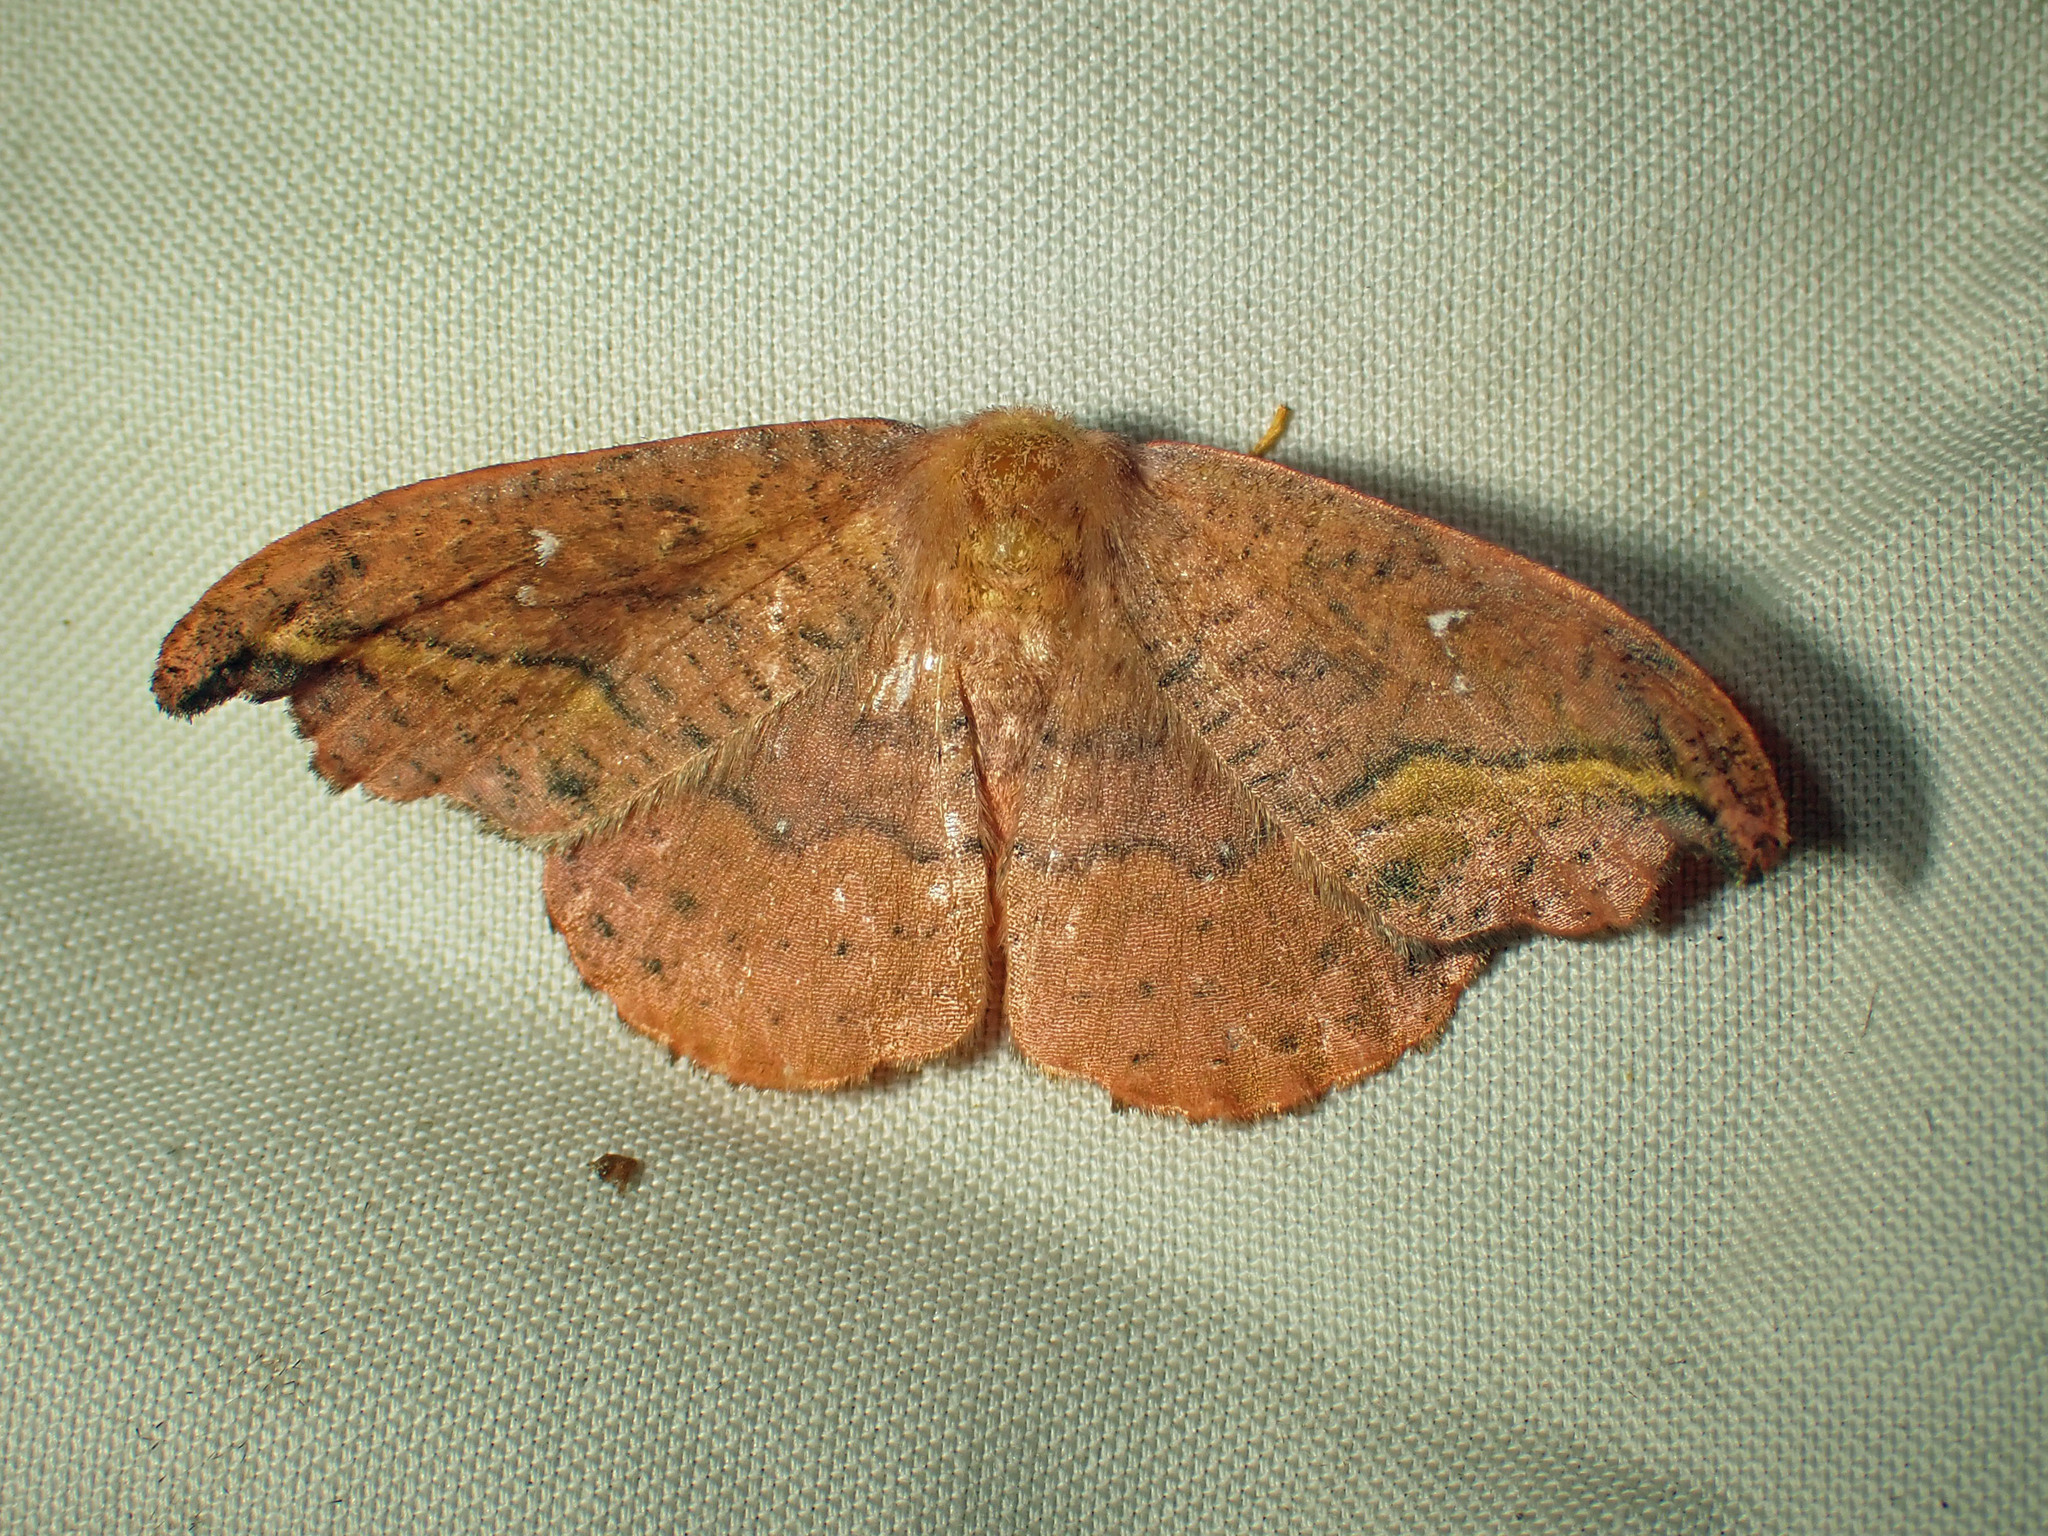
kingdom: Animalia
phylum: Arthropoda
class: Insecta
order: Lepidoptera
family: Drepanidae
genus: Oreta
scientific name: Oreta rosea
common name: Rose hooktip
